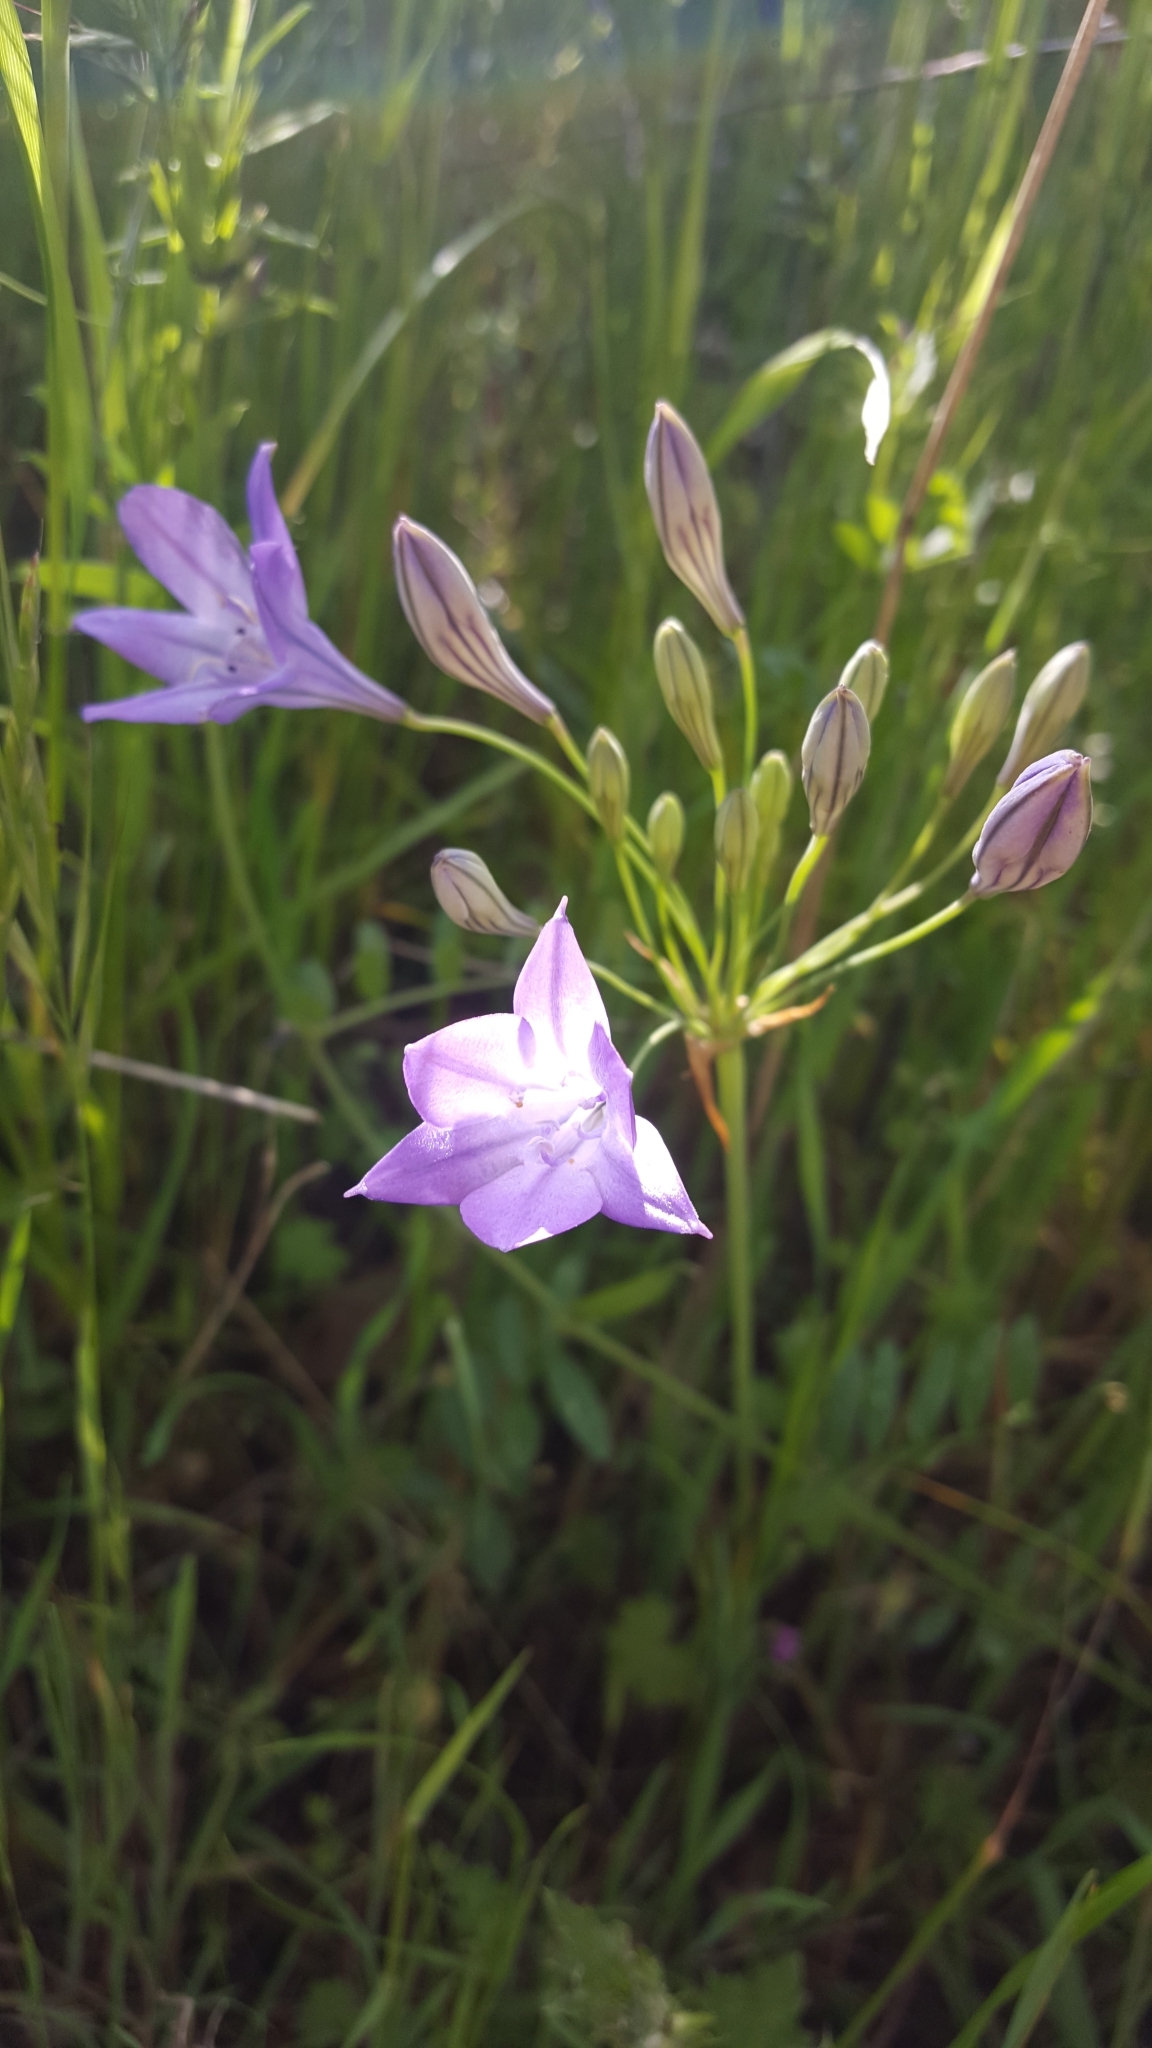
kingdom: Plantae
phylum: Tracheophyta
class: Liliopsida
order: Asparagales
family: Asparagaceae
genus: Triteleia
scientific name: Triteleia laxa
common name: Triplet-lily
